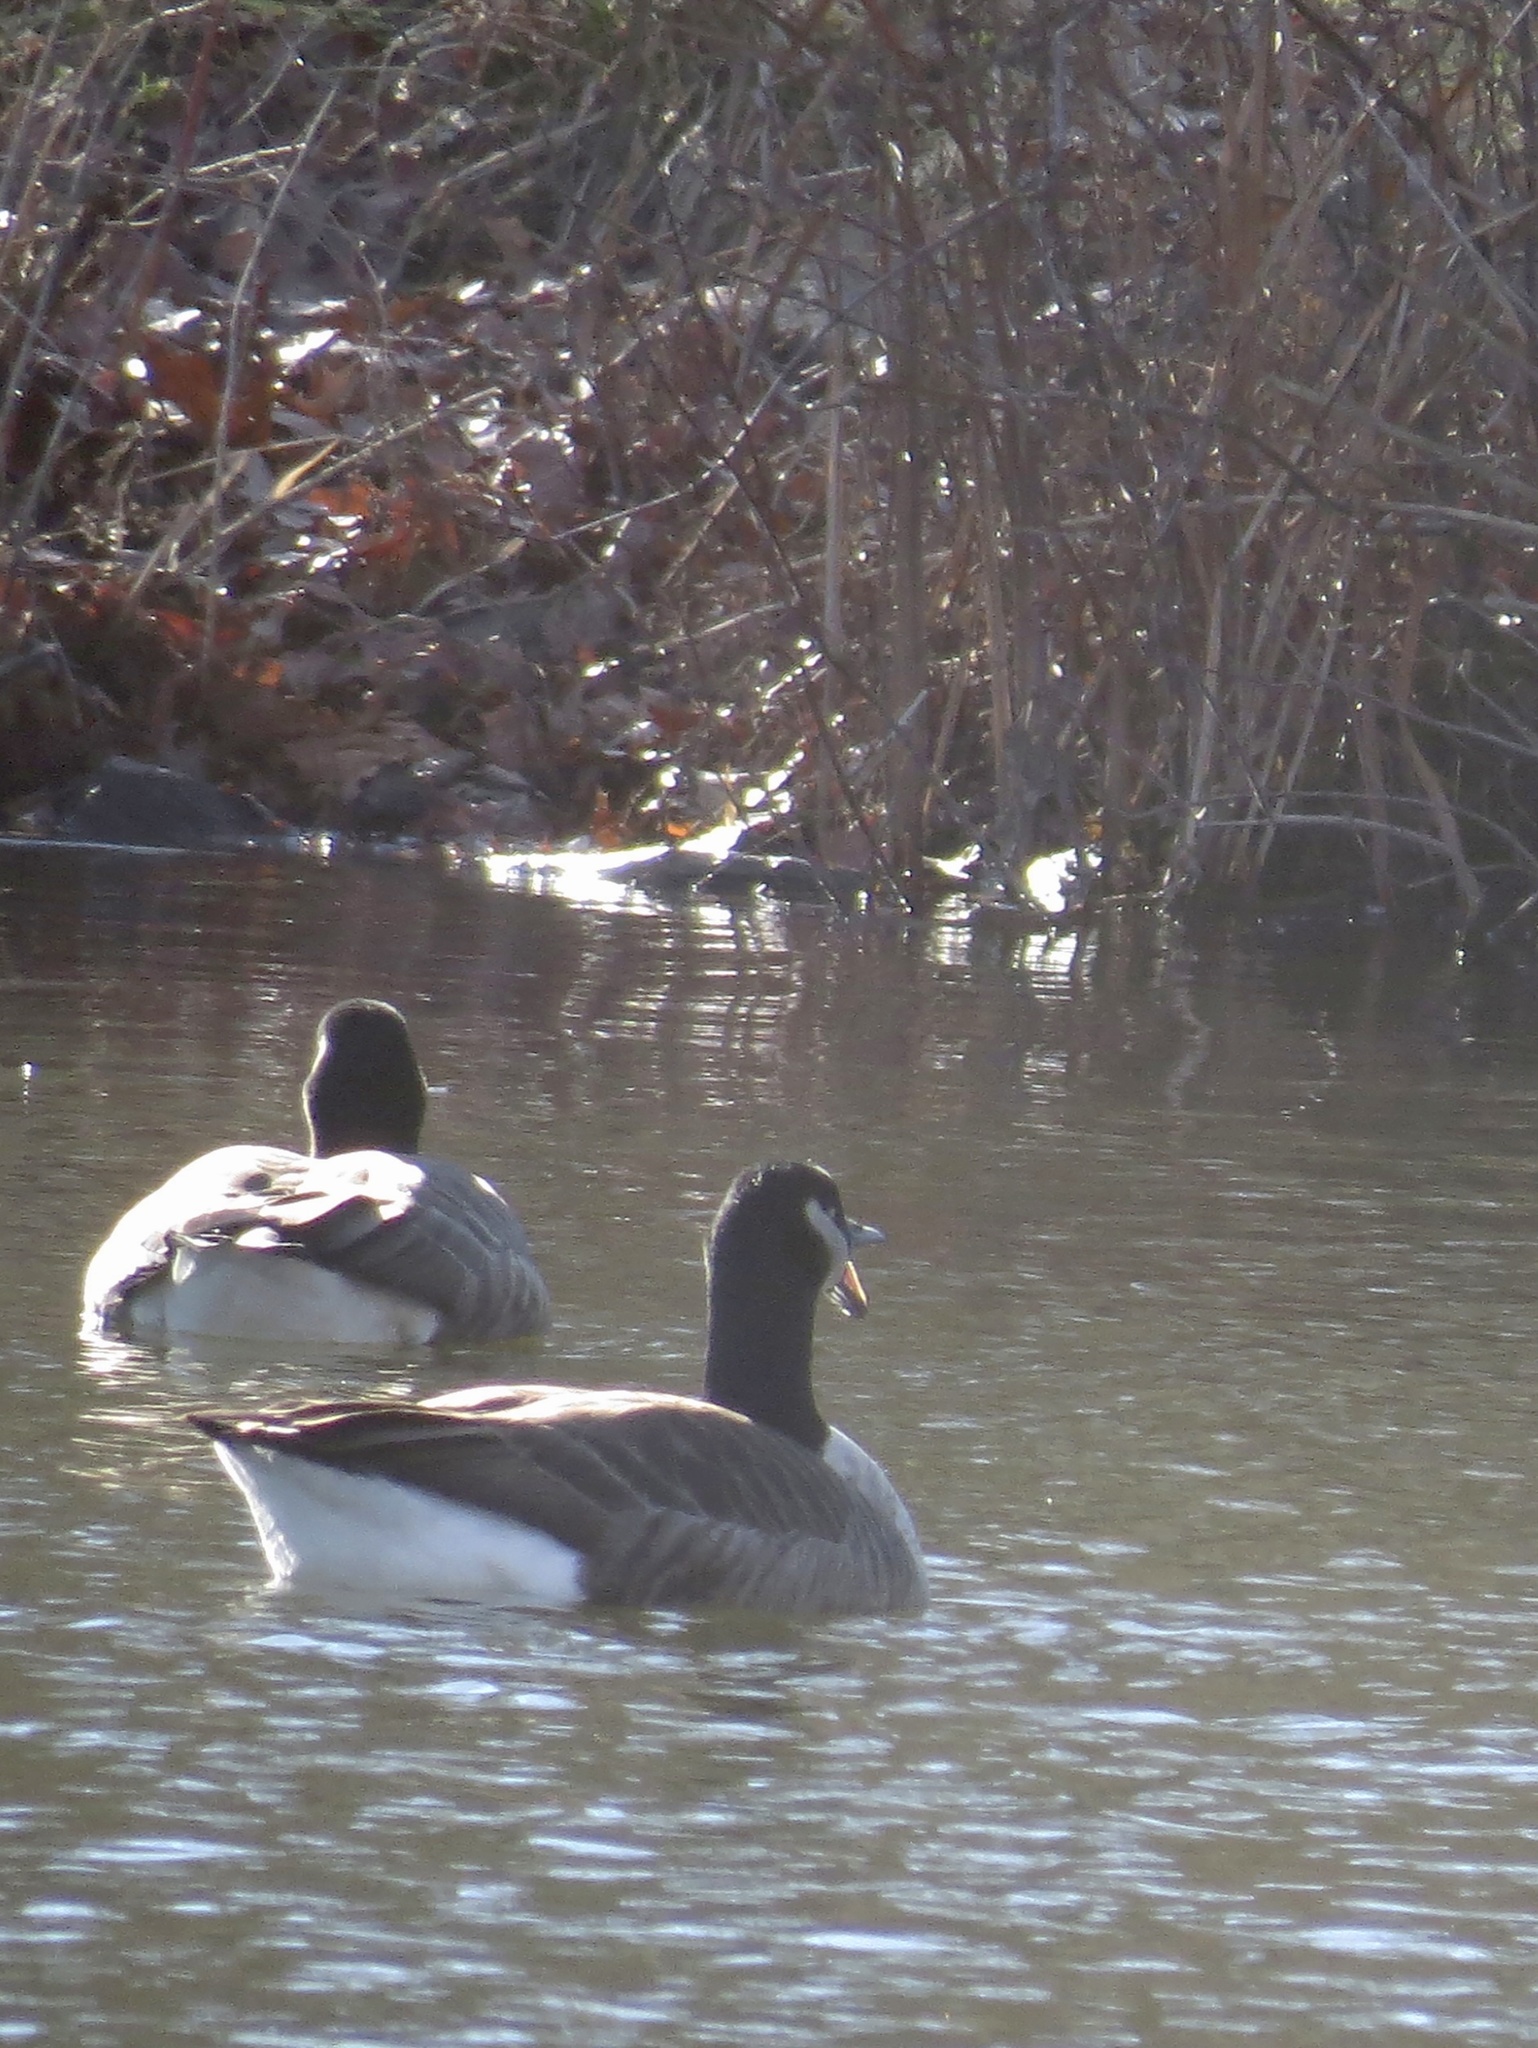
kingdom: Animalia
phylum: Chordata
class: Aves
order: Anseriformes
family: Anatidae
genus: Branta
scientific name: Branta canadensis
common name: Canada goose
